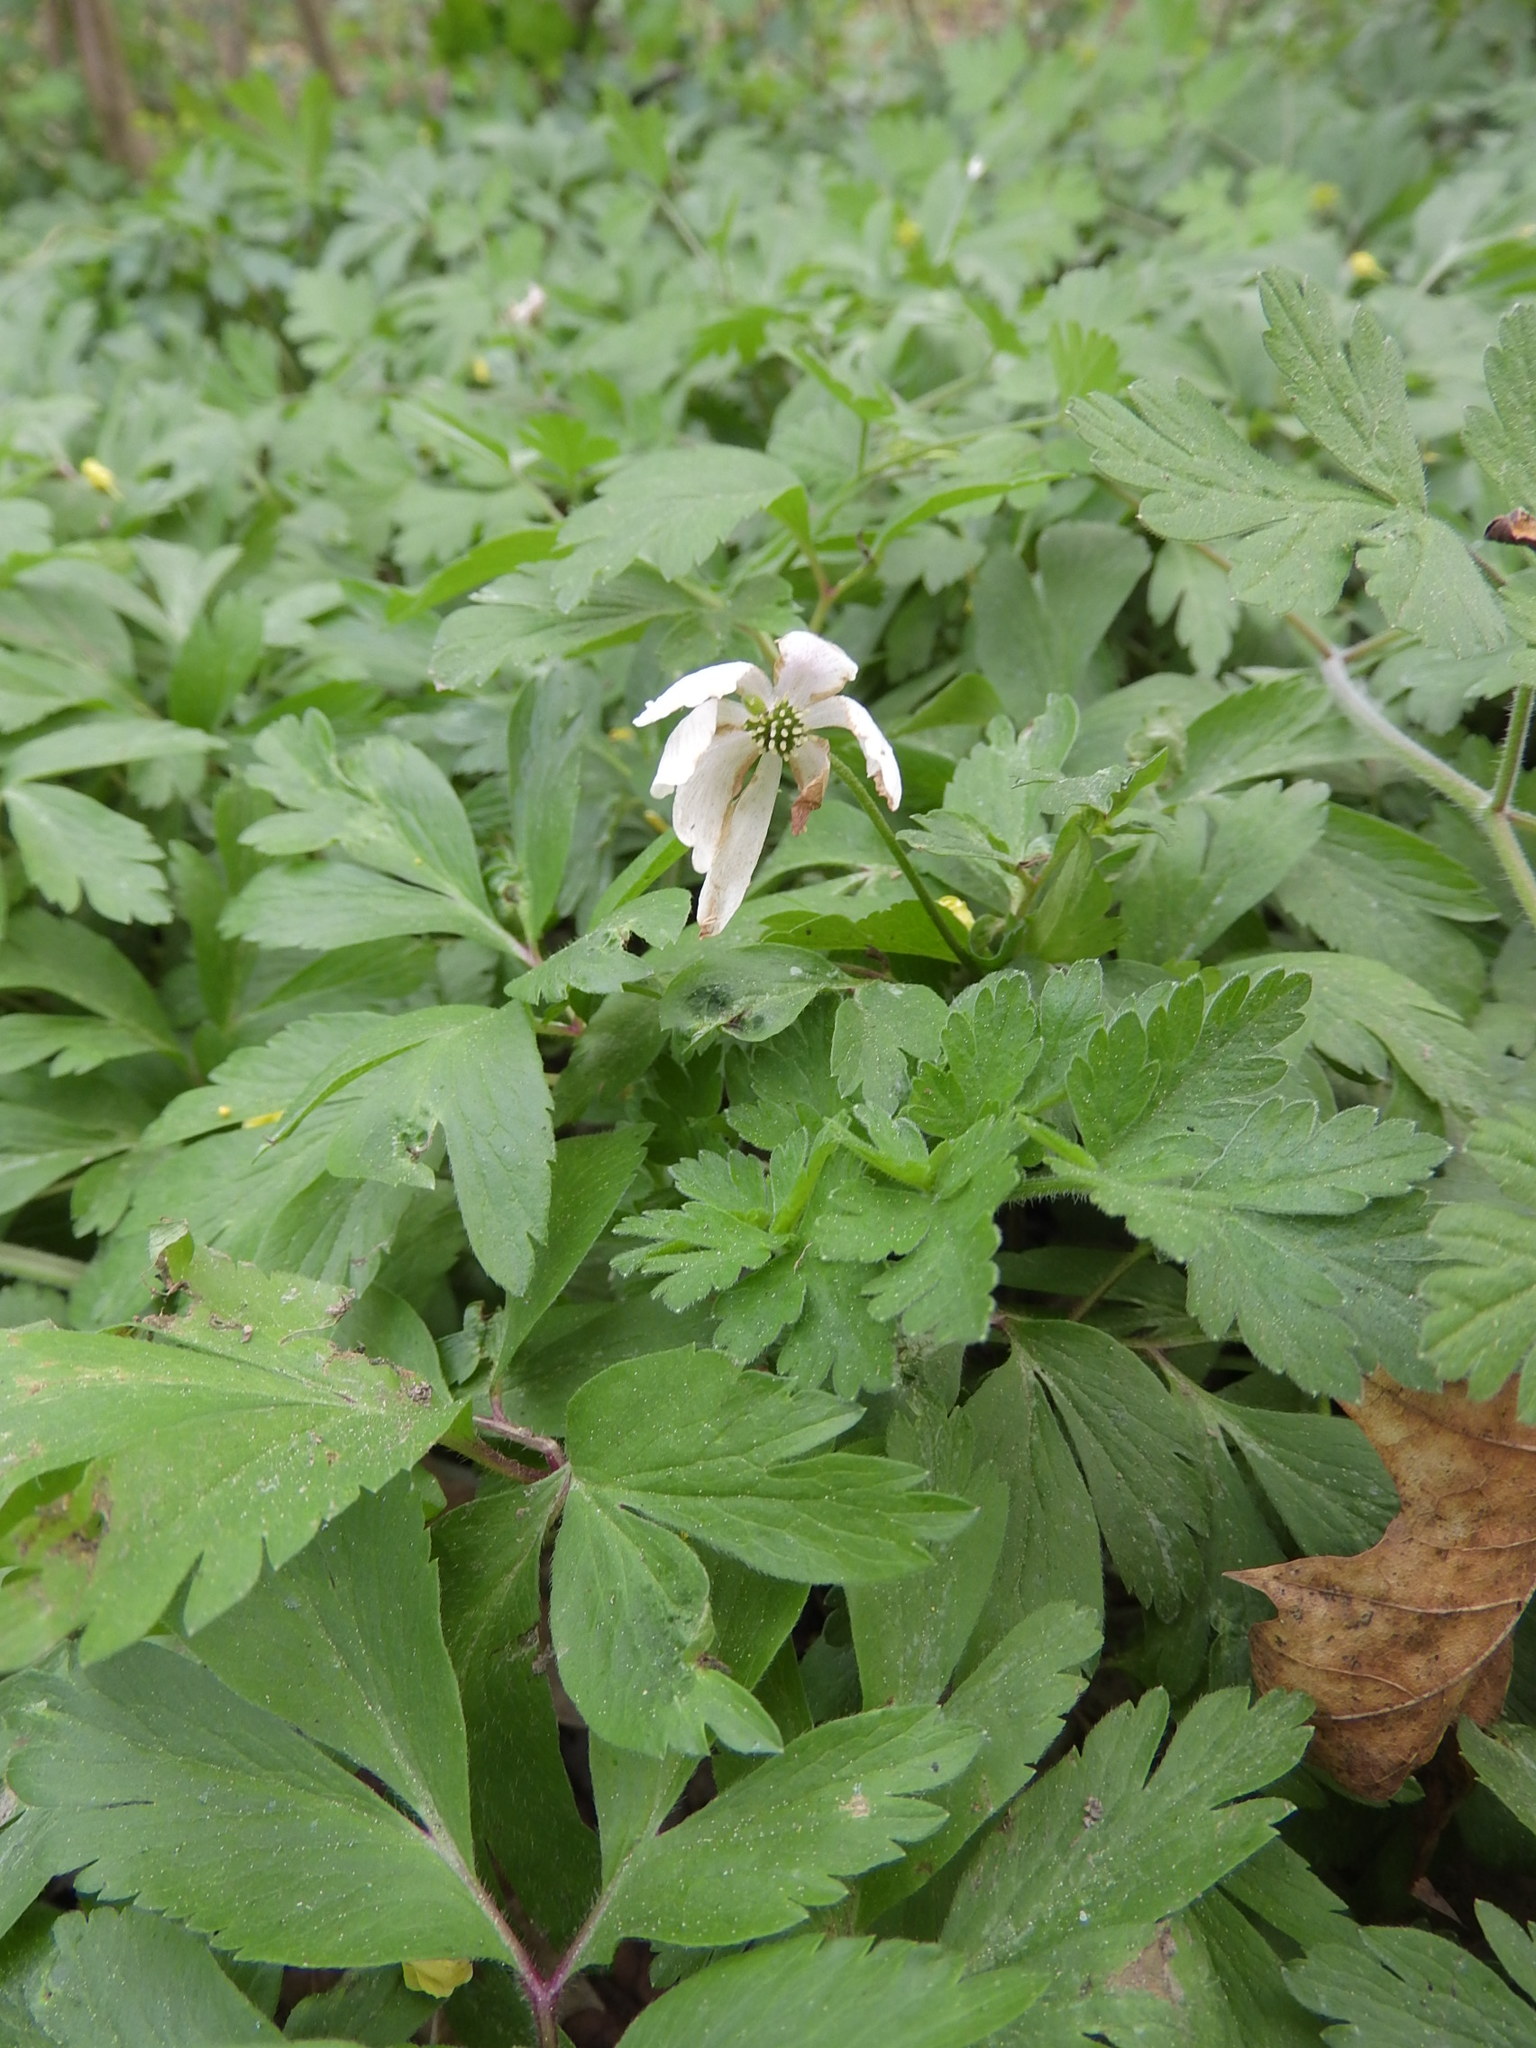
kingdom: Plantae
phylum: Tracheophyta
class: Magnoliopsida
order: Ranunculales
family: Ranunculaceae
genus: Anemone
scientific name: Anemone nemorosa
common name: Wood anemone
